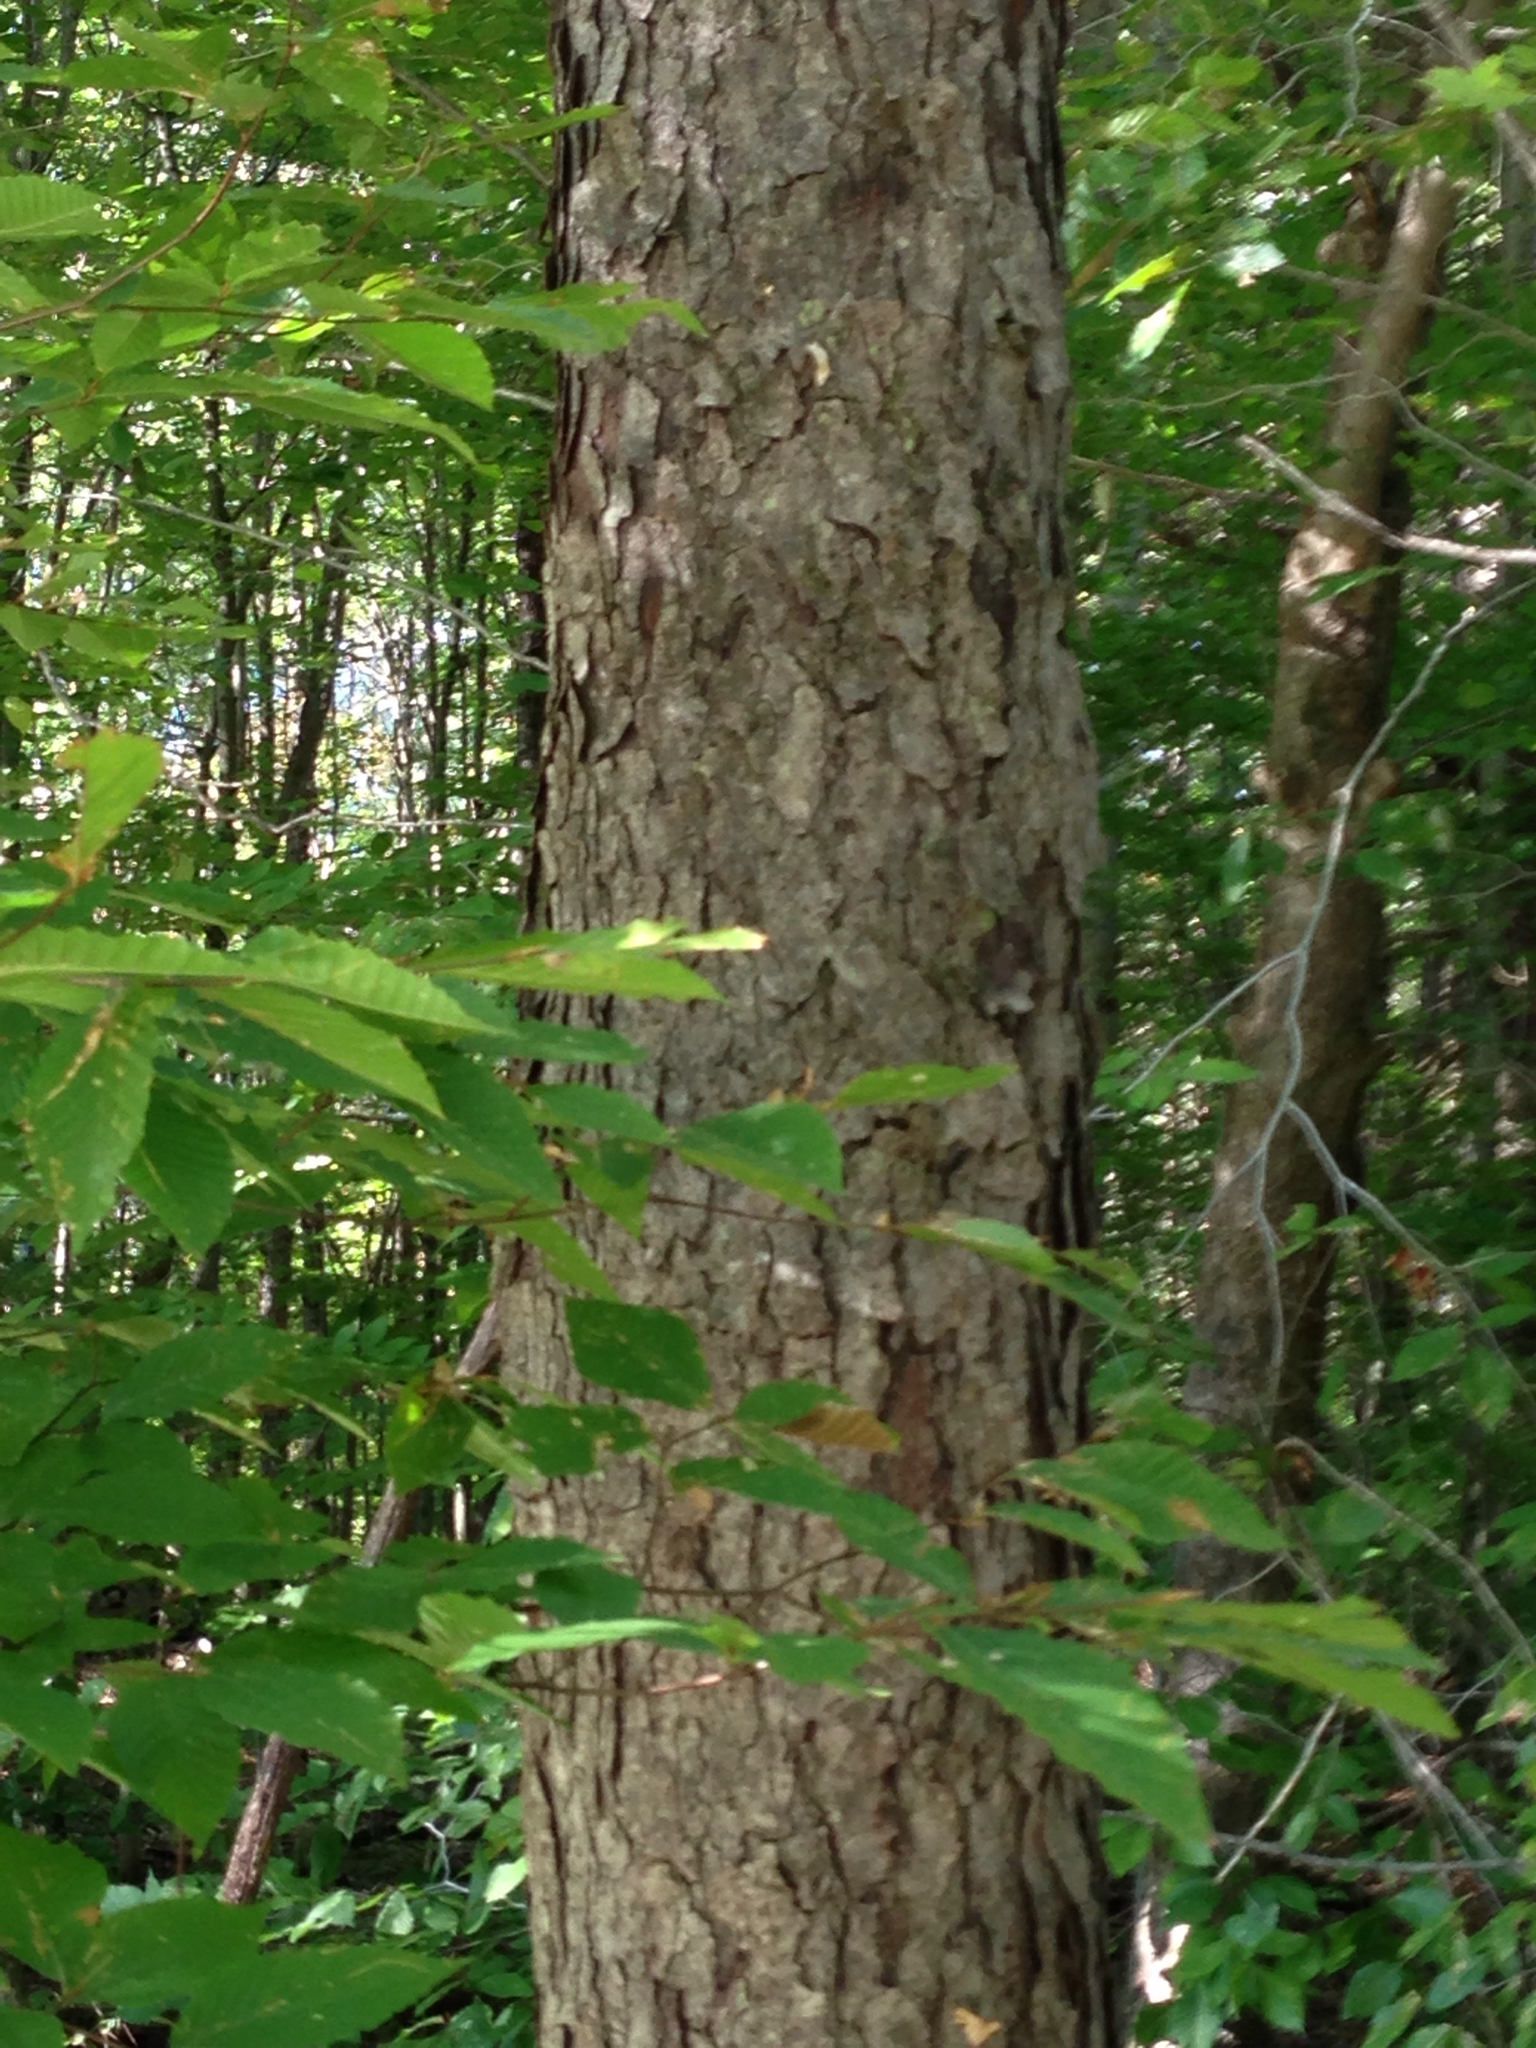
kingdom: Plantae
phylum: Tracheophyta
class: Magnoliopsida
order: Rosales
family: Rosaceae
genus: Prunus
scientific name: Prunus serotina
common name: Black cherry
